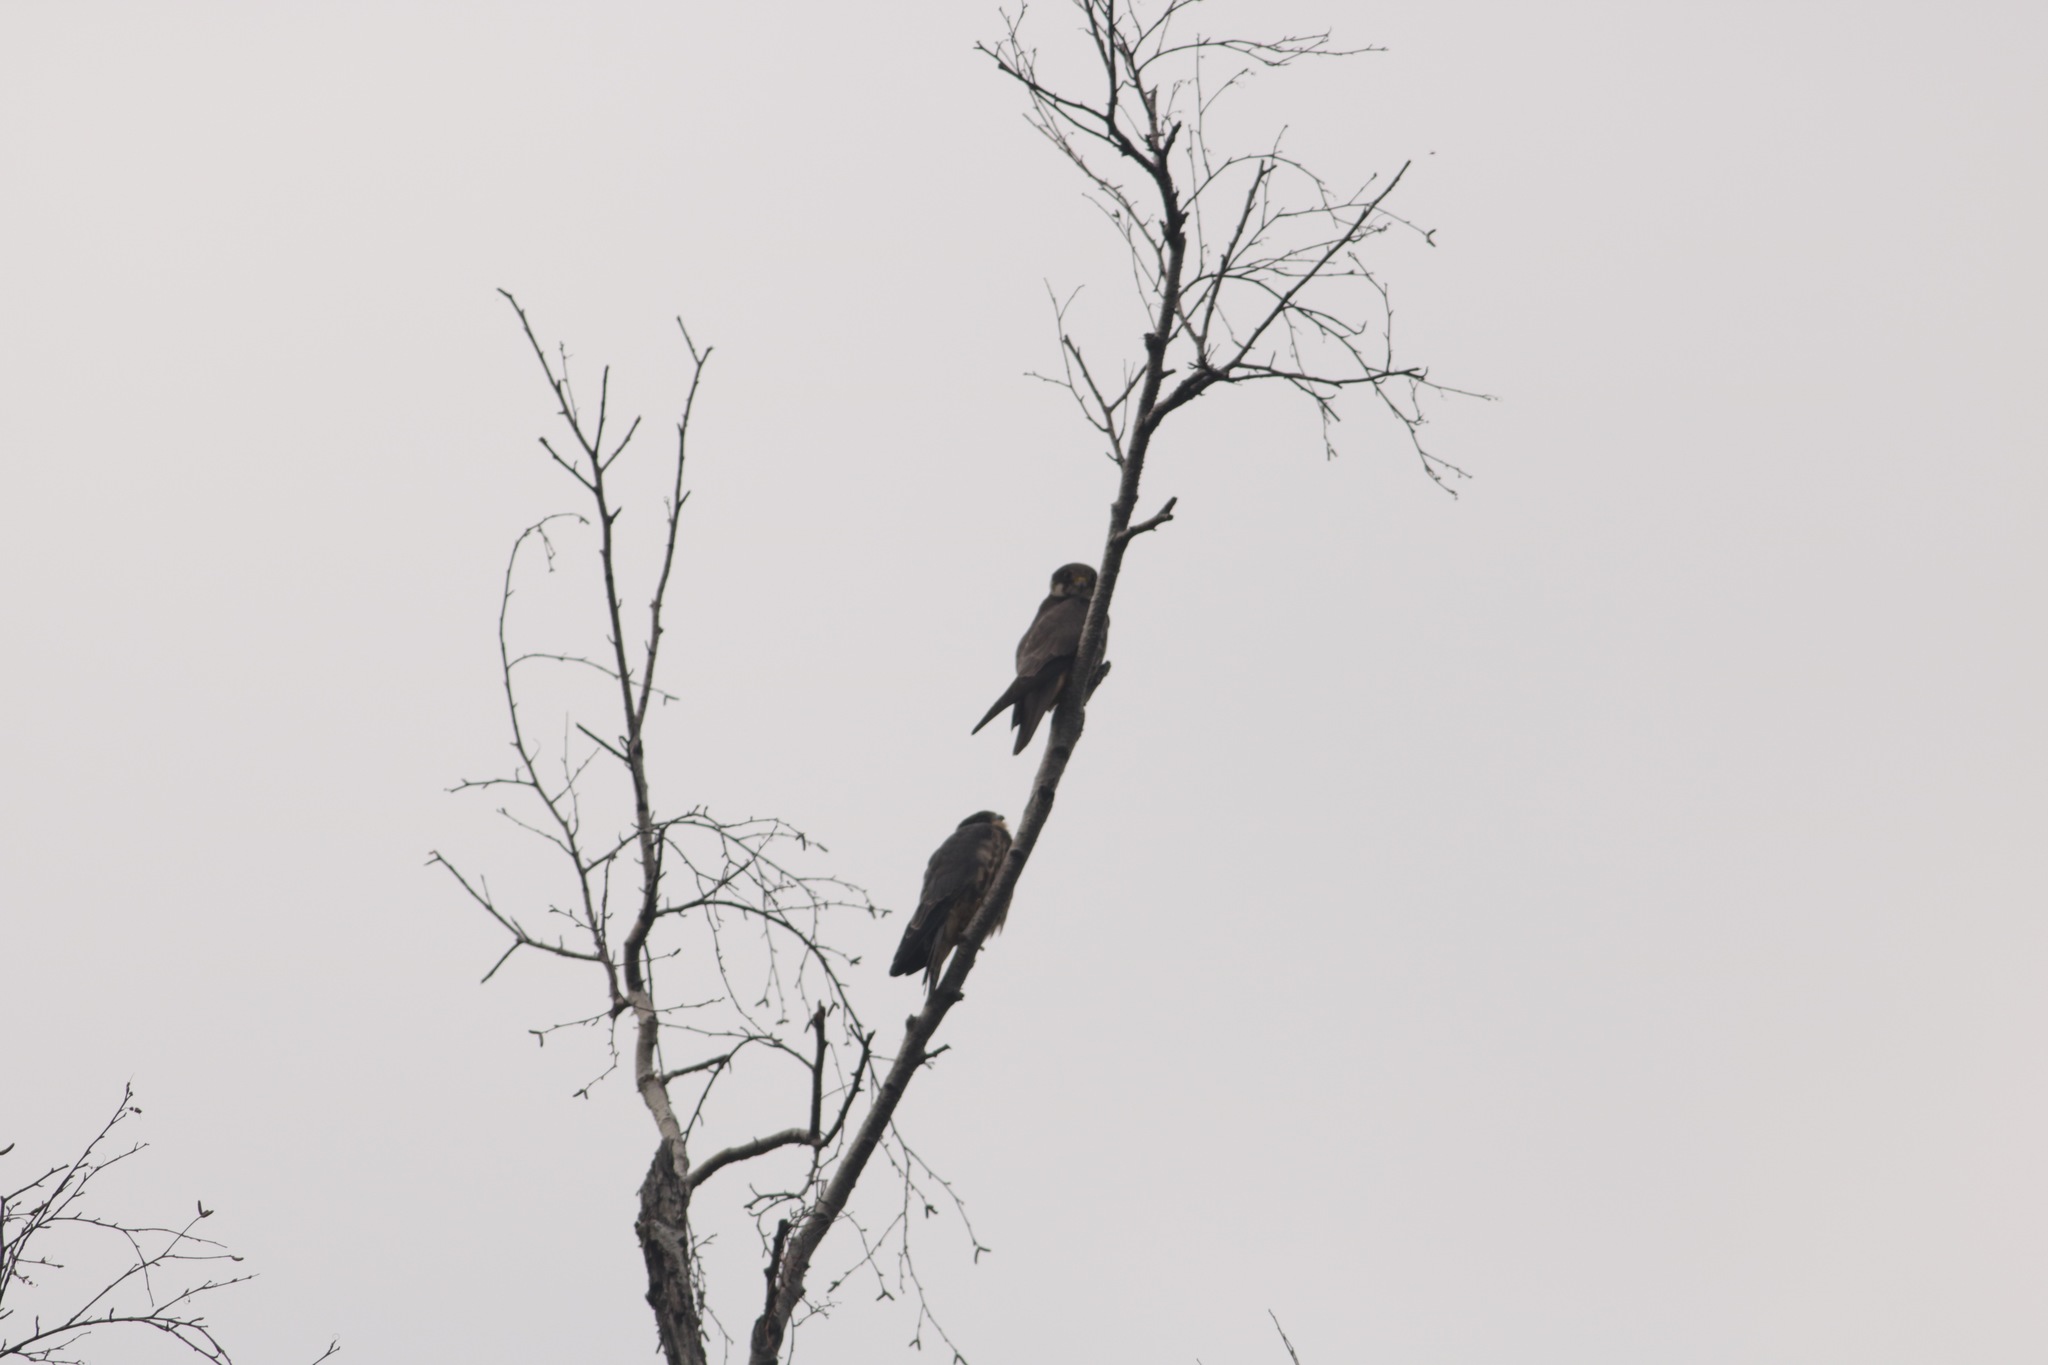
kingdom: Animalia
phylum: Chordata
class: Aves
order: Falconiformes
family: Falconidae
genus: Falco
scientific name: Falco subbuteo
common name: Eurasian hobby
